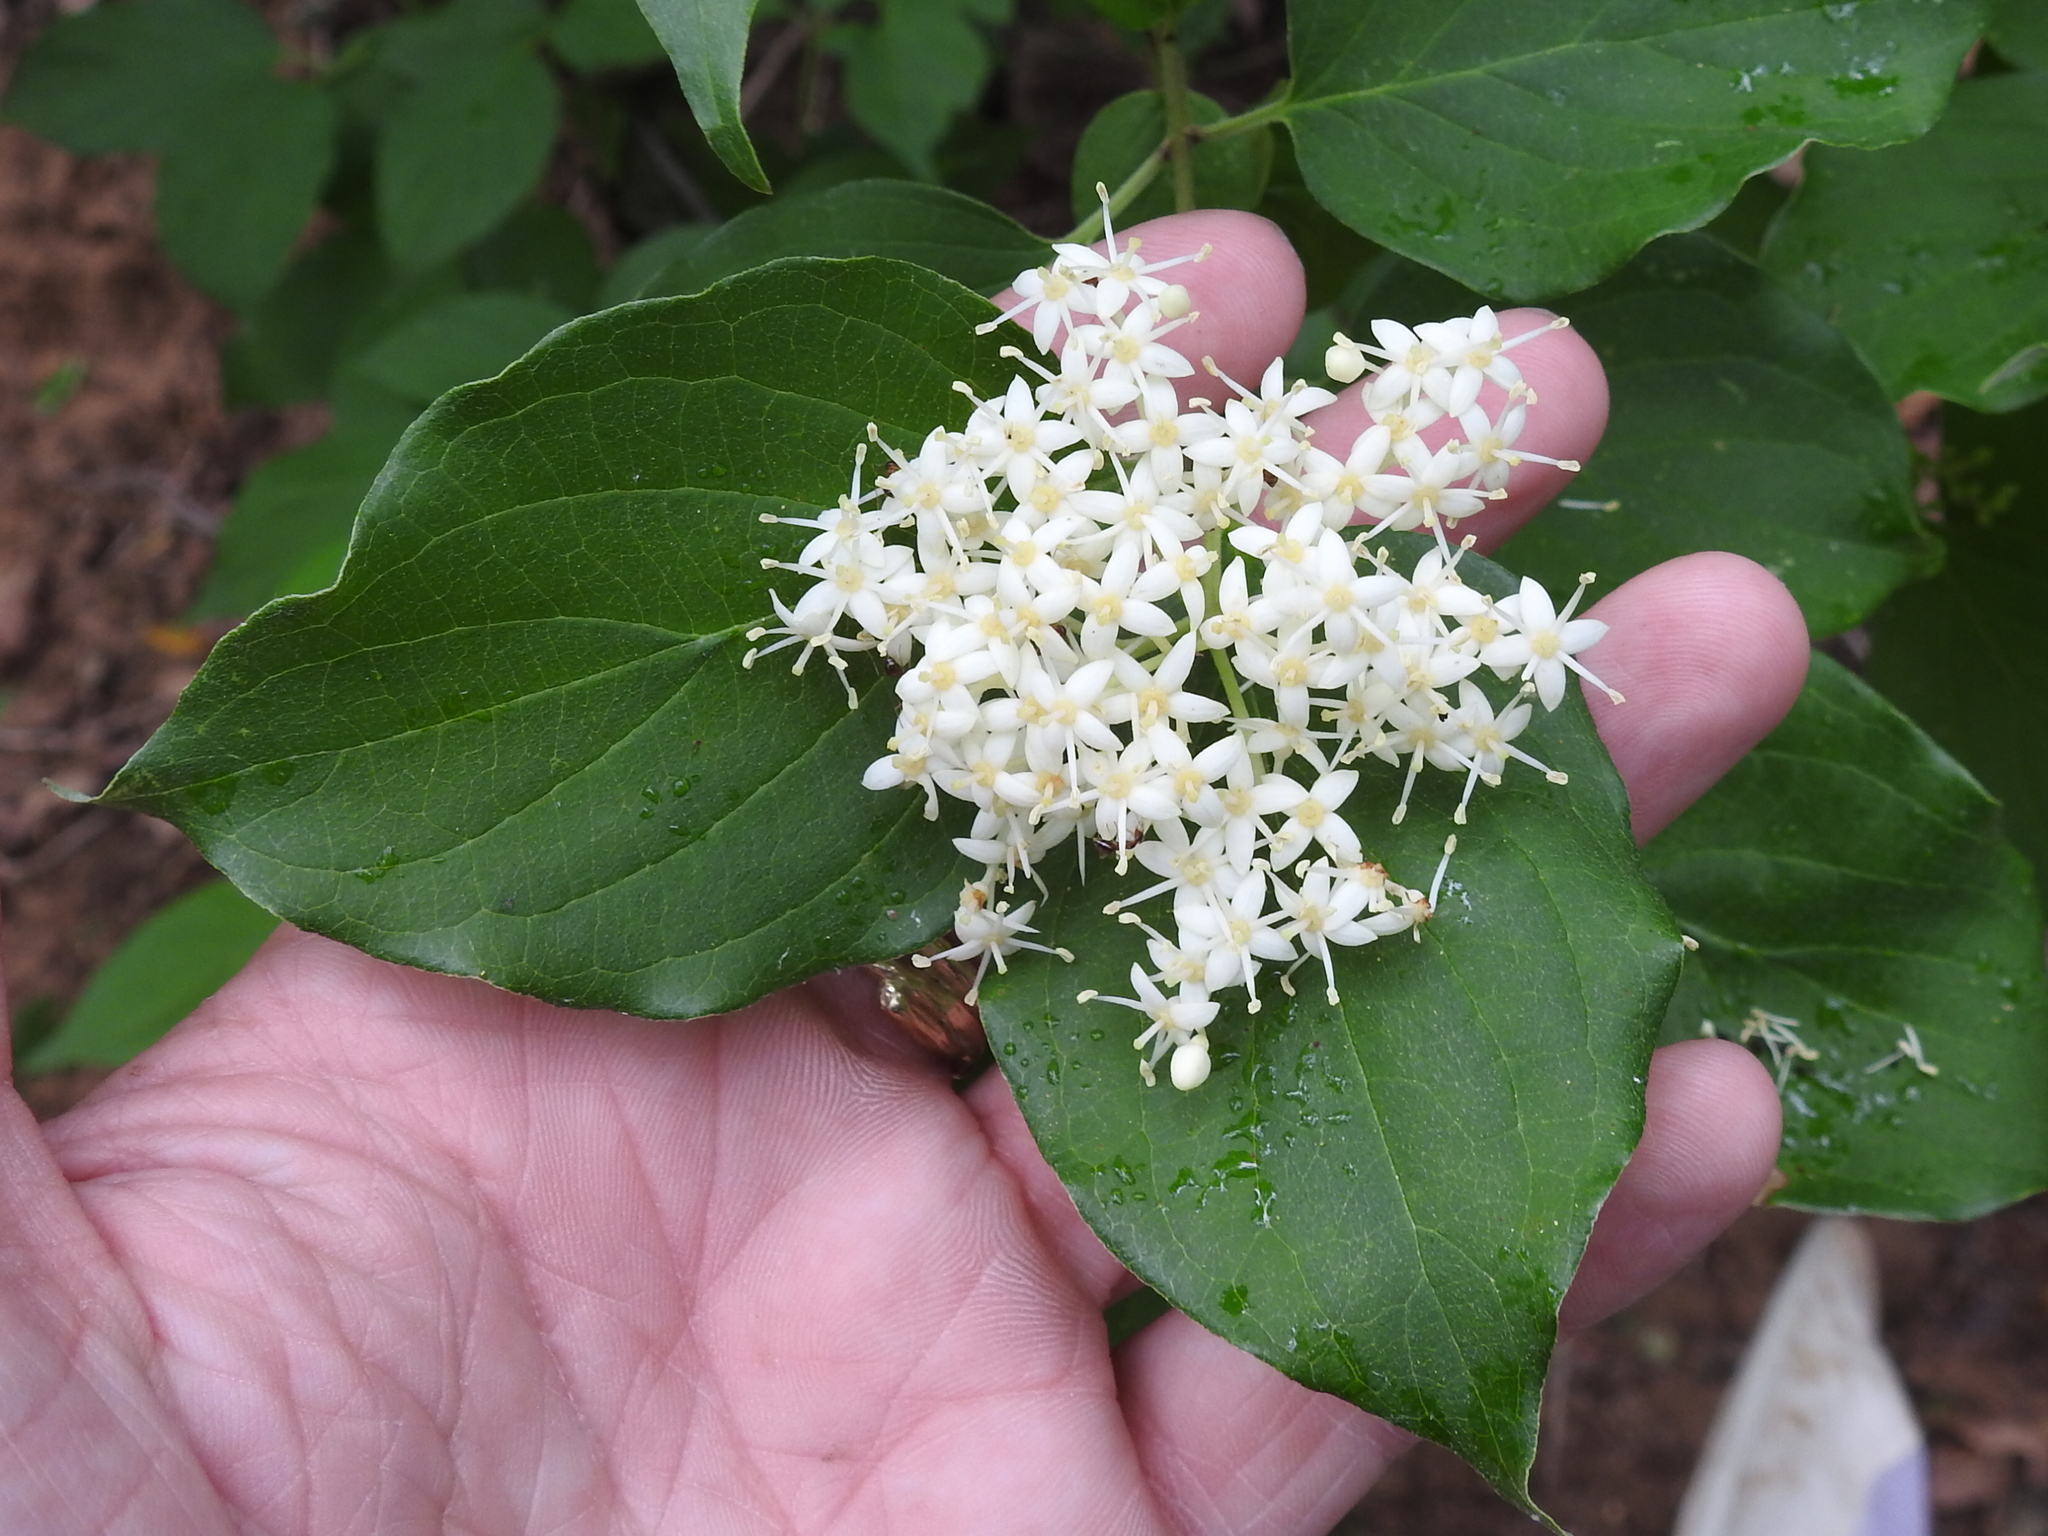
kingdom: Plantae
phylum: Tracheophyta
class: Magnoliopsida
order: Cornales
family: Cornaceae
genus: Cornus
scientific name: Cornus drummondii
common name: Rough-leaf dogwood
